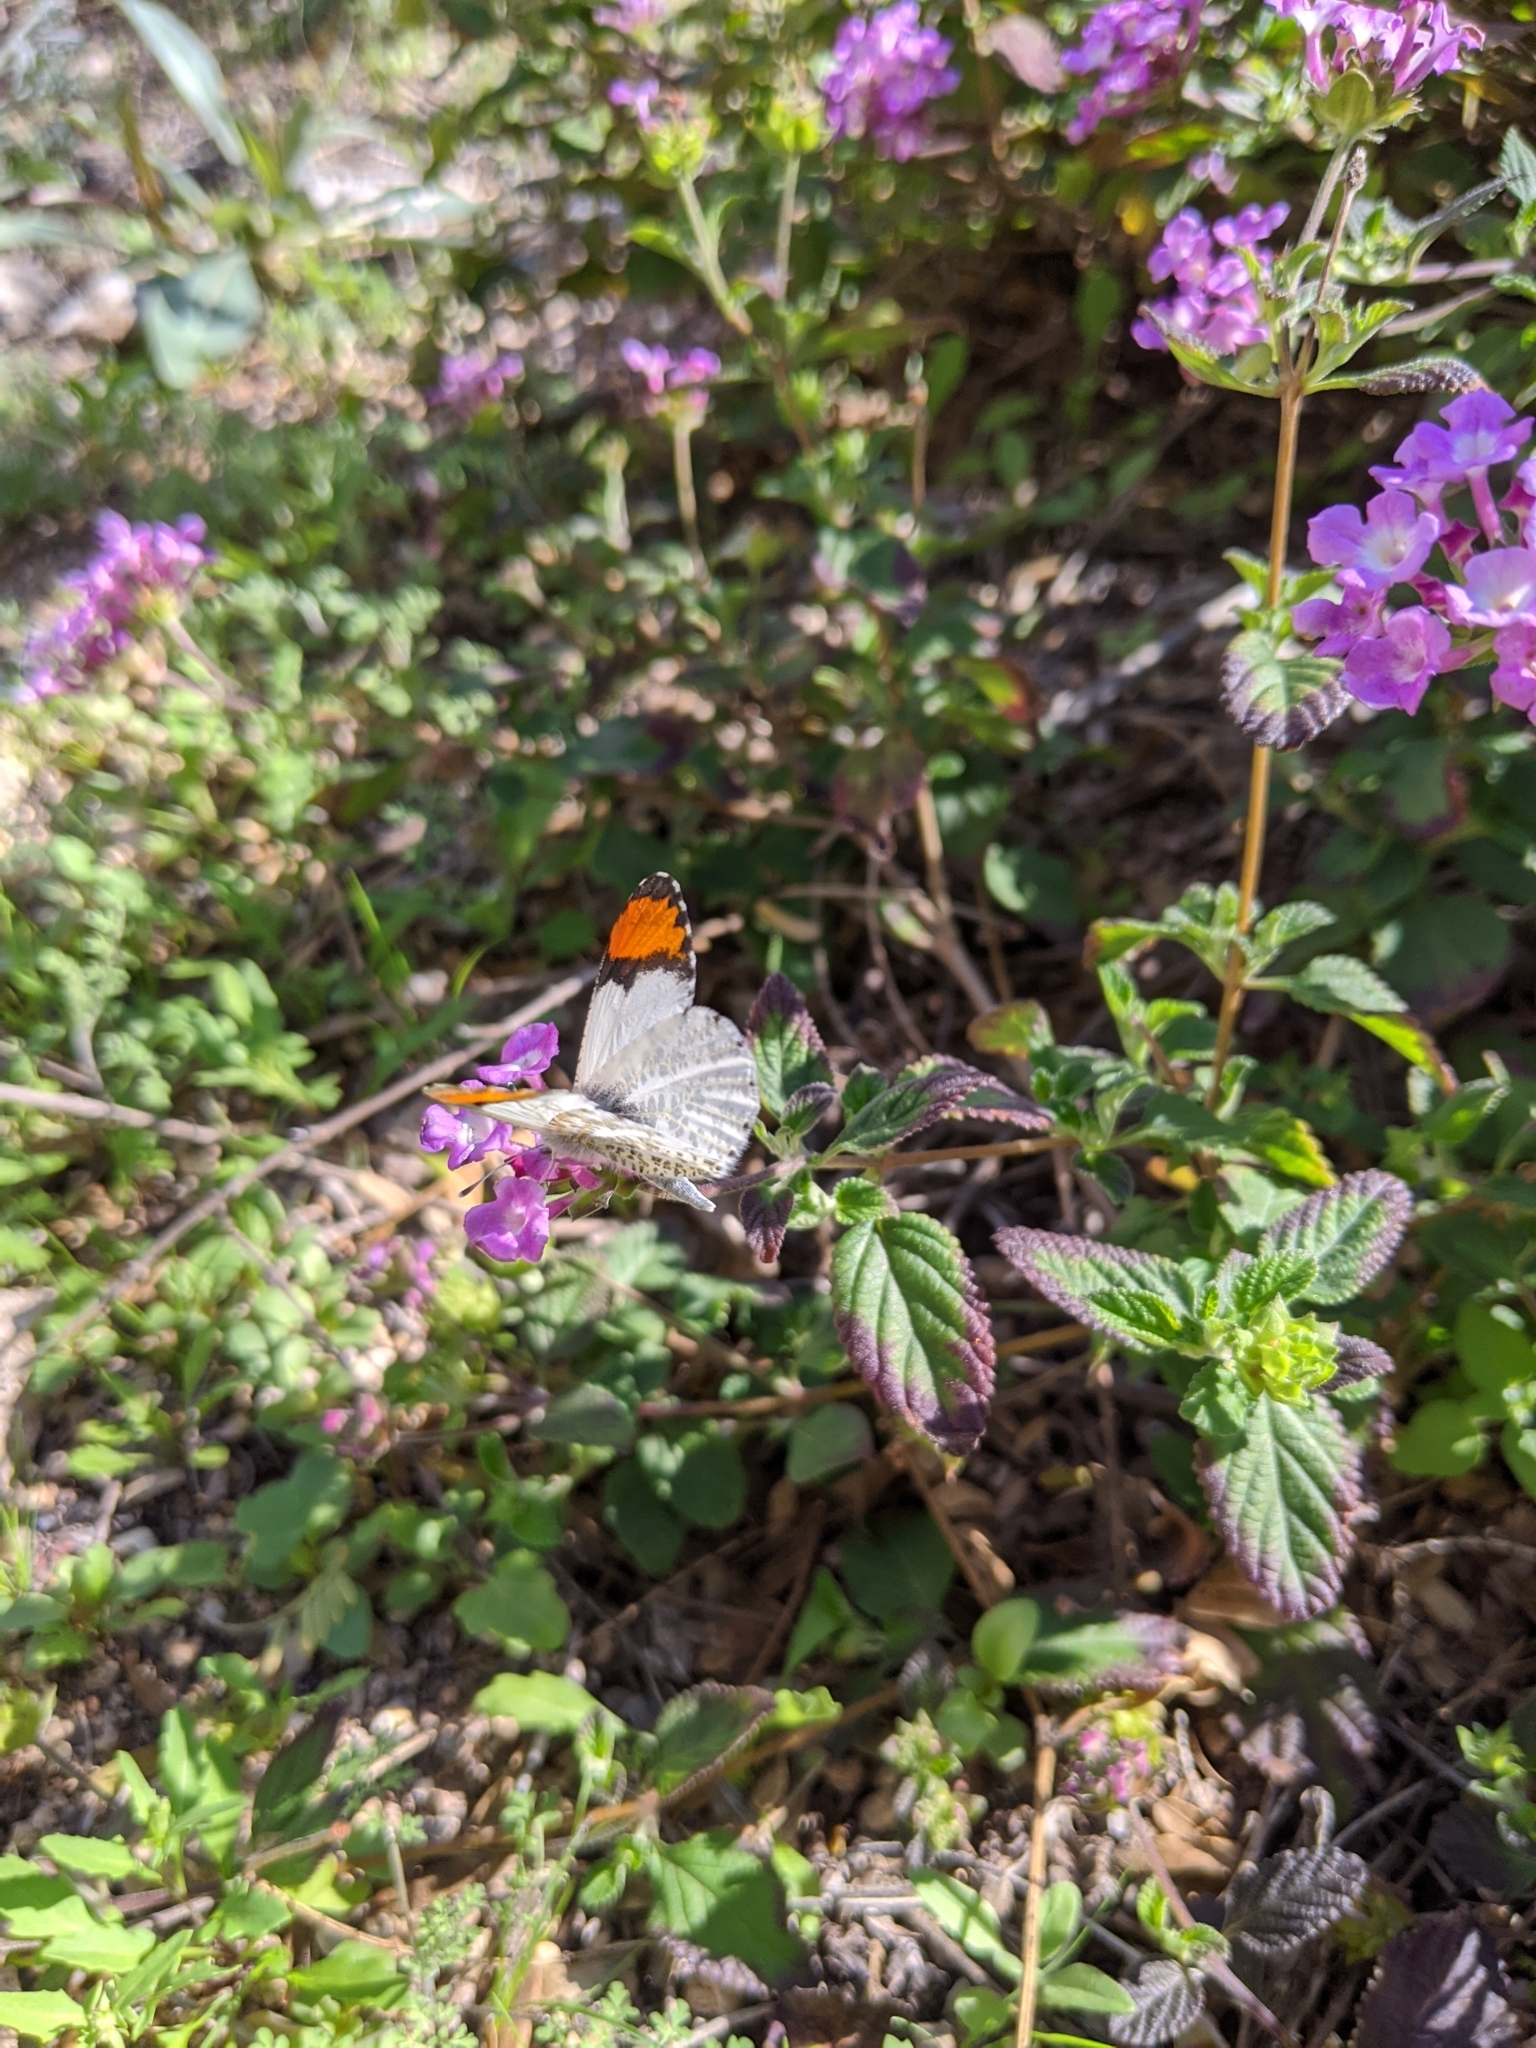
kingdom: Animalia
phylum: Arthropoda
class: Insecta
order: Lepidoptera
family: Pieridae
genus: Anthocharis
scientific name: Anthocharis thoosa
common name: Southwestern orangetip
